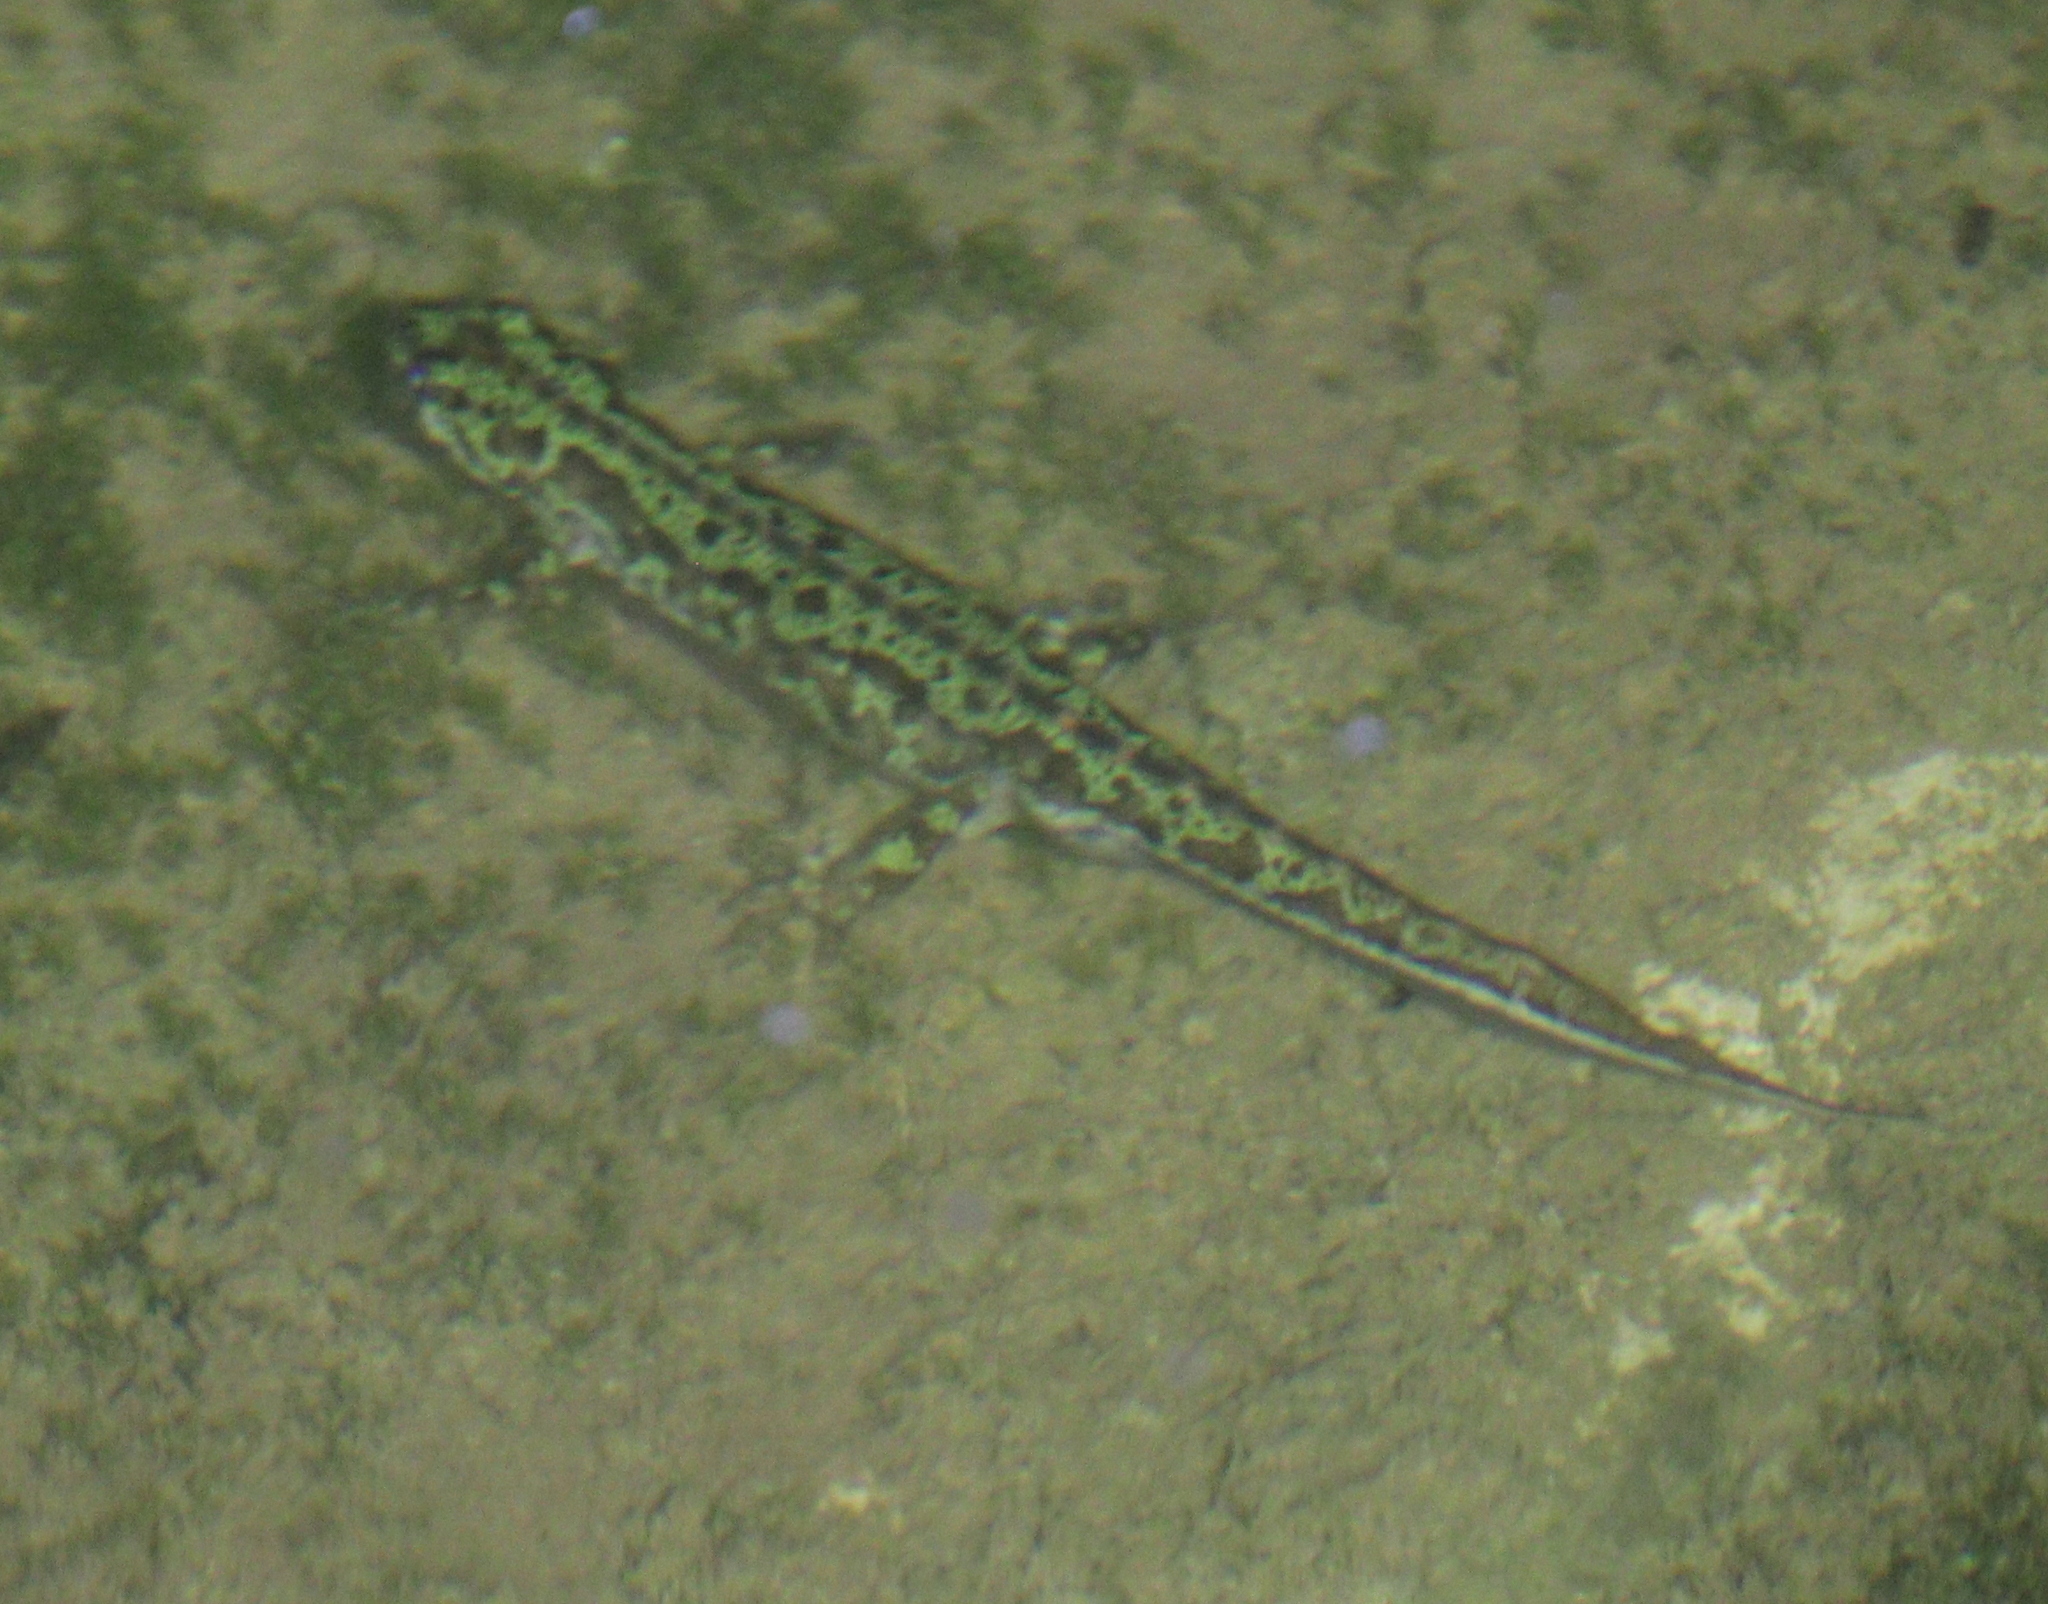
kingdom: Animalia
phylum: Chordata
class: Amphibia
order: Caudata
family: Salamandridae
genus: Triturus
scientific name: Triturus pygmaeus
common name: Southern marbled newt
